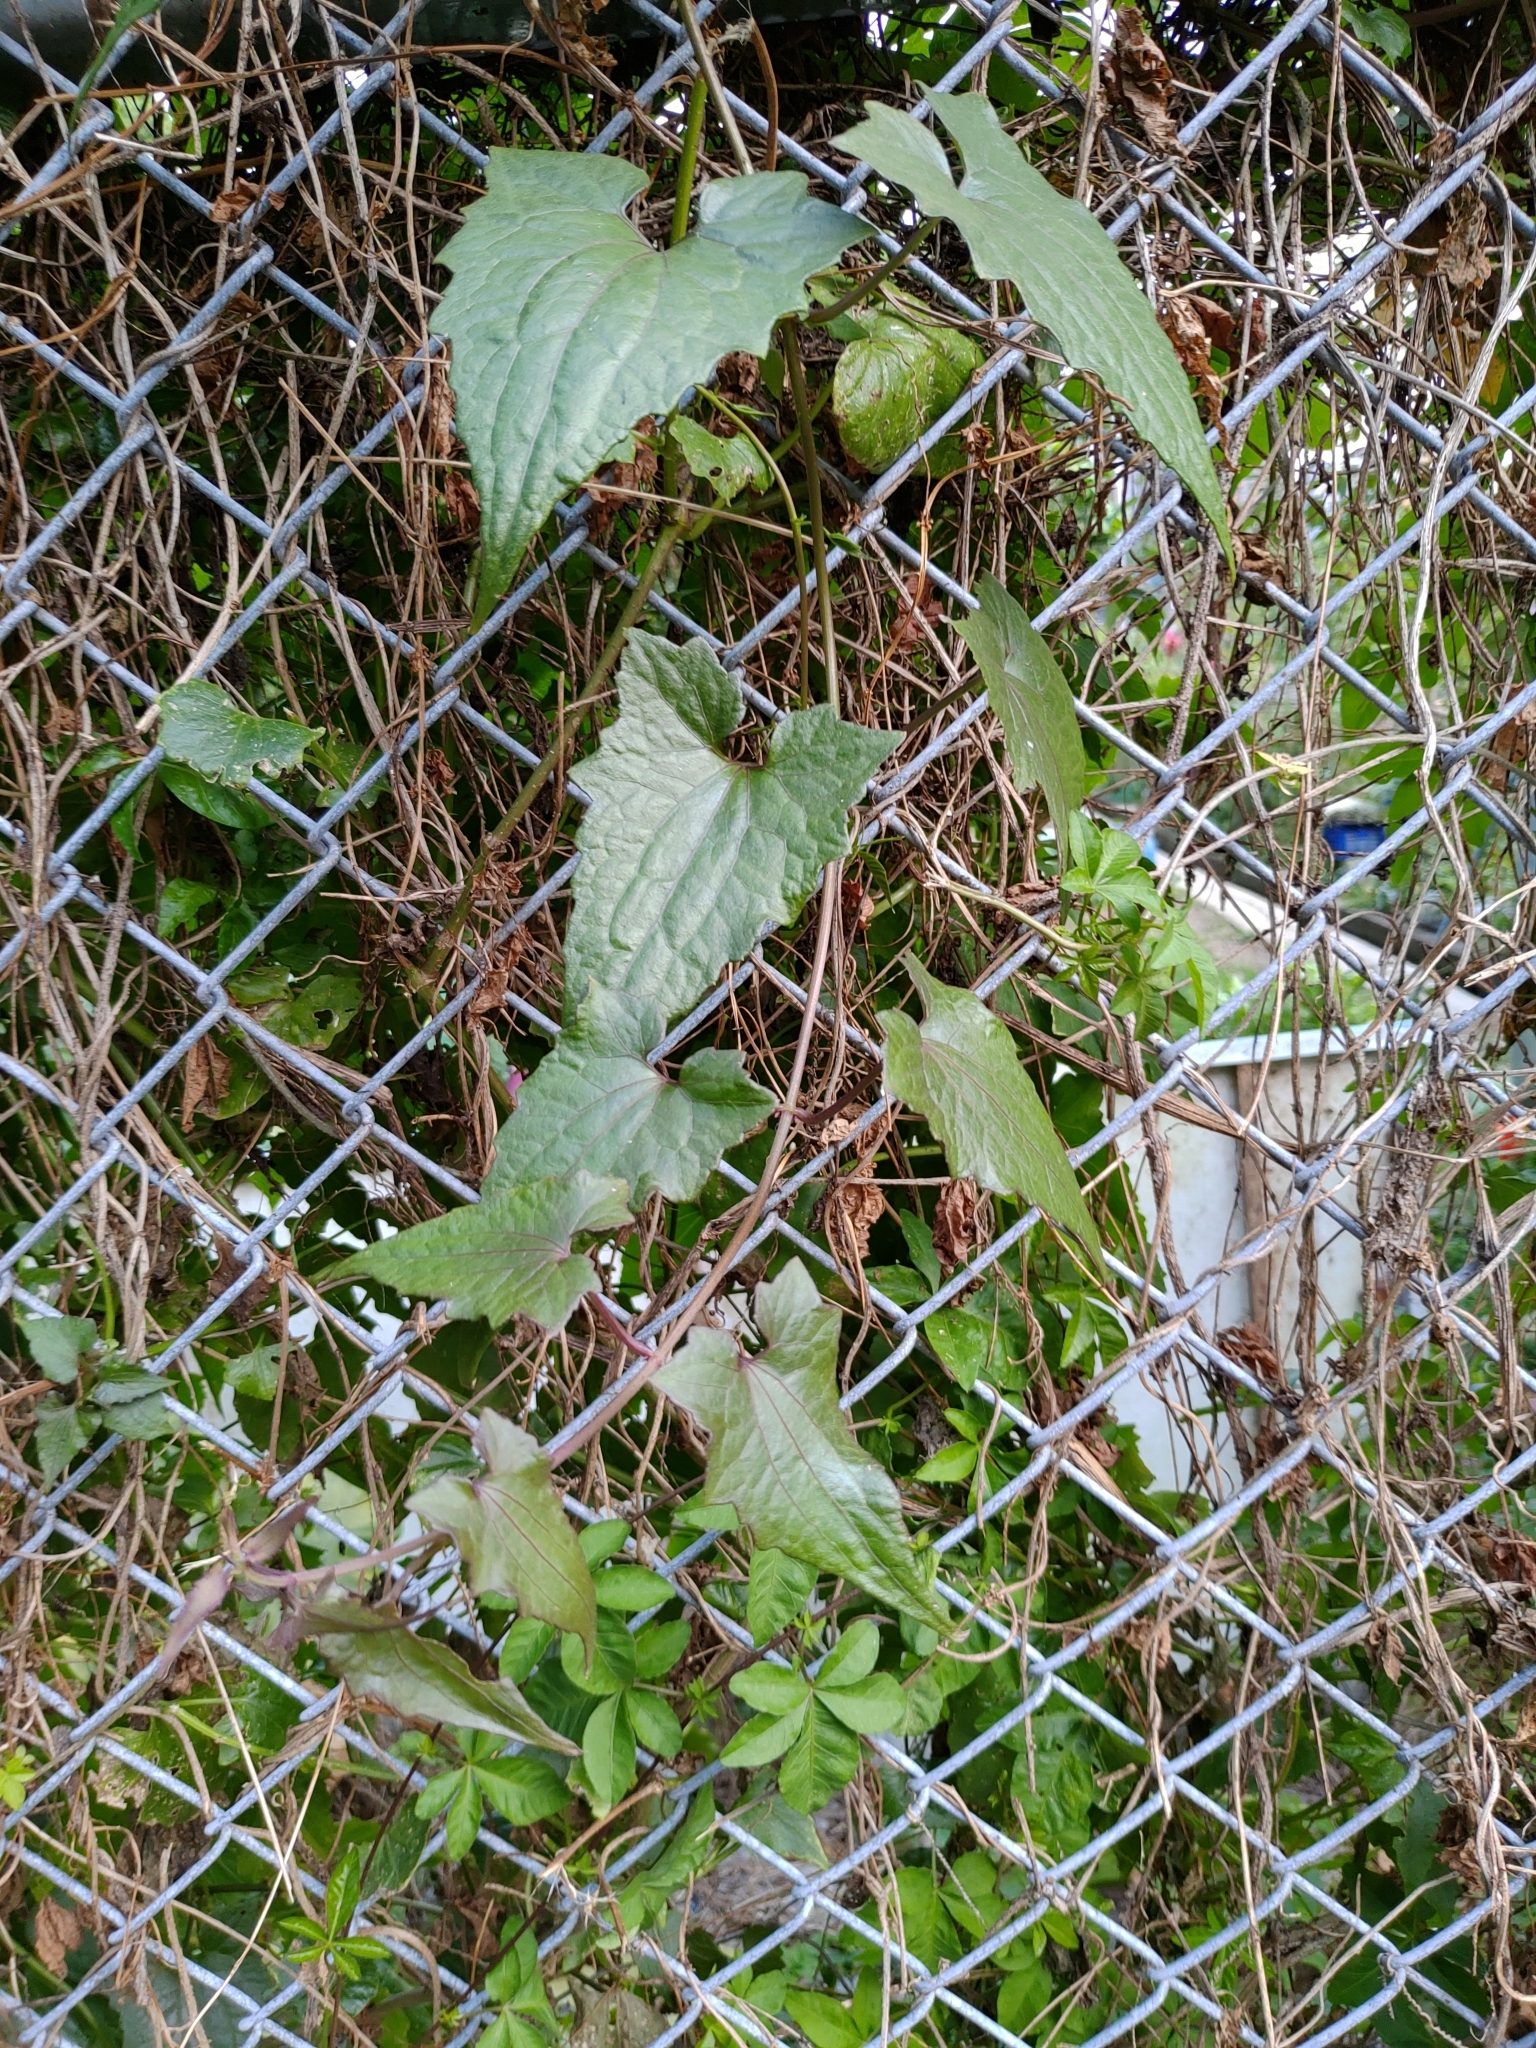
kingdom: Plantae
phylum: Tracheophyta
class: Magnoliopsida
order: Asterales
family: Asteraceae
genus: Mikania
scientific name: Mikania micrantha
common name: Mile-a-minute
